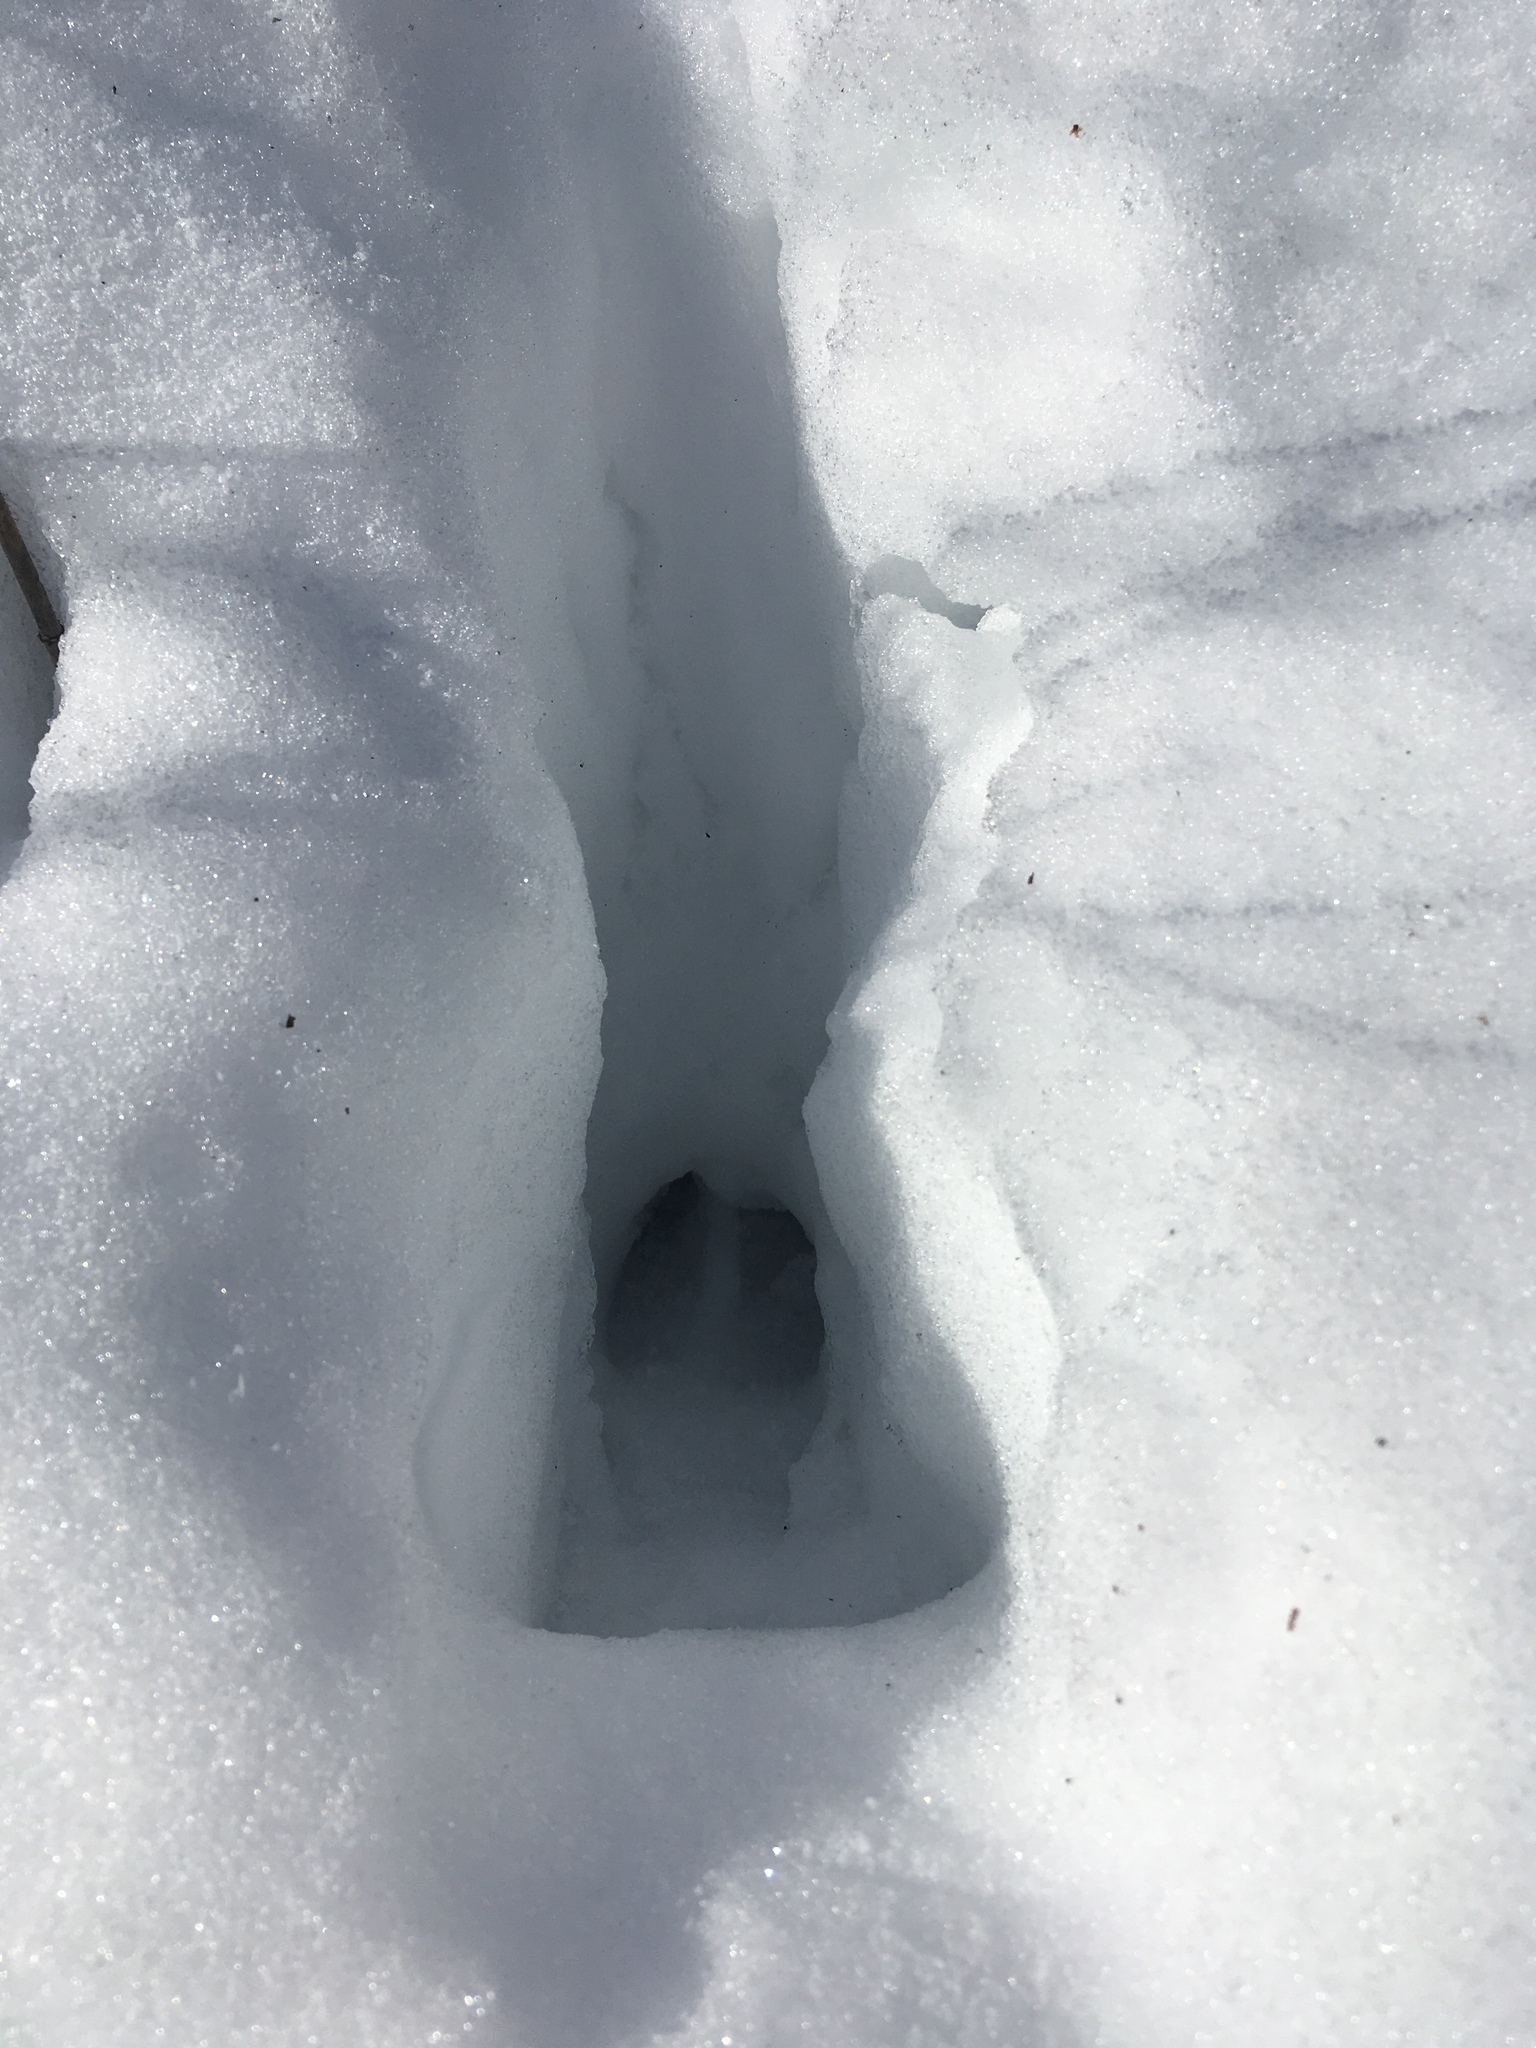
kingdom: Animalia
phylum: Chordata
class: Mammalia
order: Artiodactyla
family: Cervidae
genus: Odocoileus
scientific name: Odocoileus virginianus
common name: White-tailed deer
